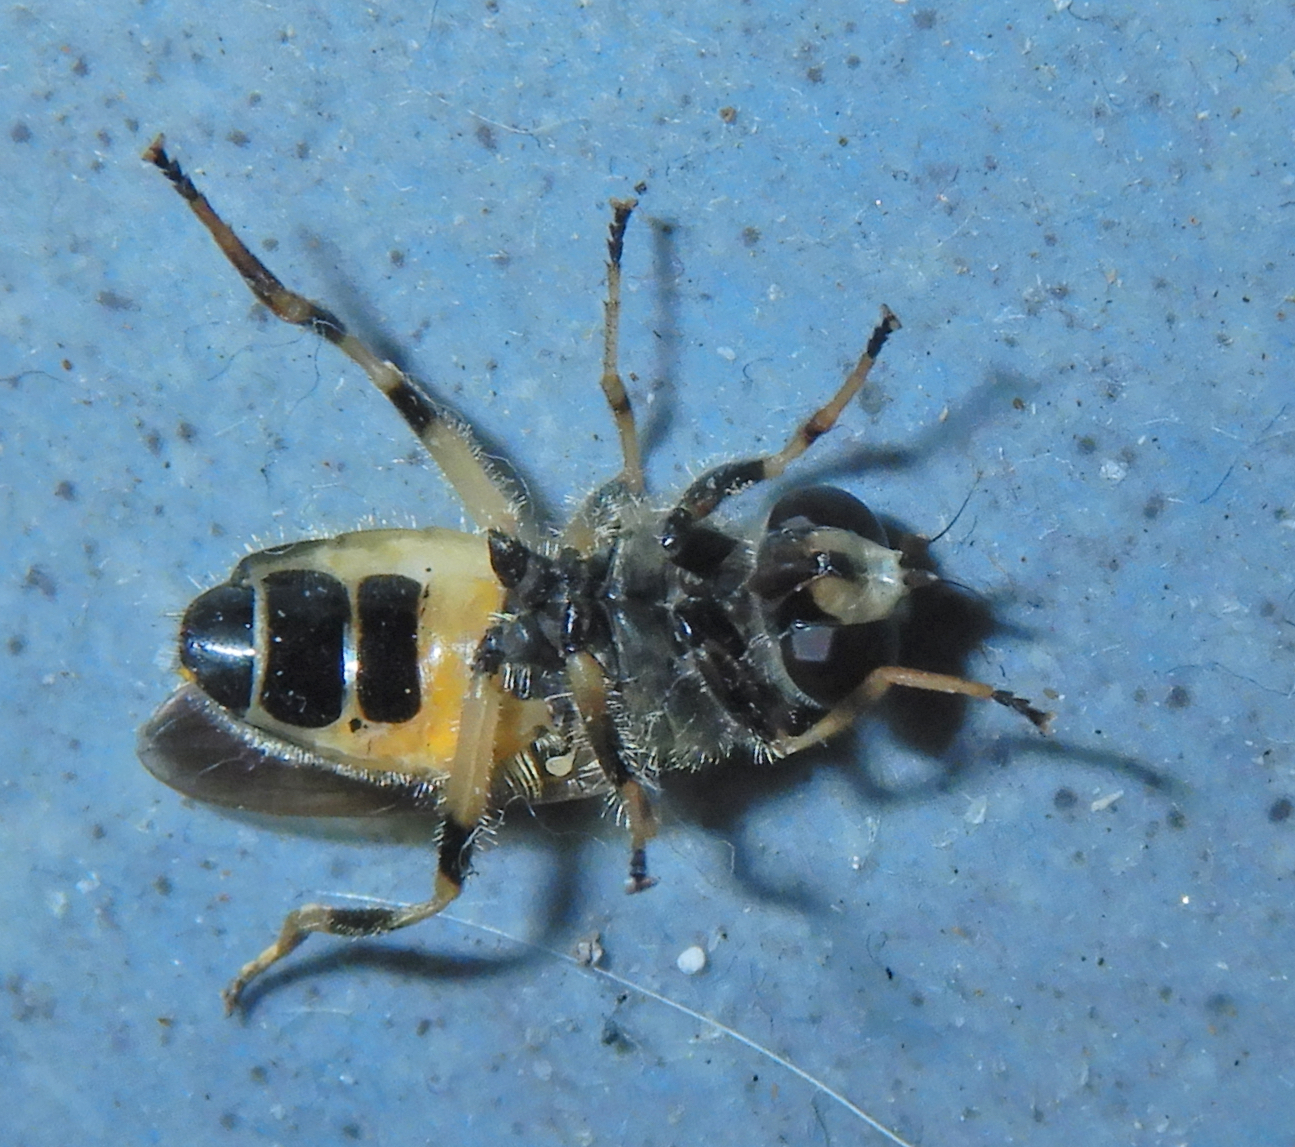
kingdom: Animalia
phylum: Arthropoda
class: Insecta
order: Diptera
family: Syrphidae
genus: Blera
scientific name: Blera badia
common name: Common wood fly
